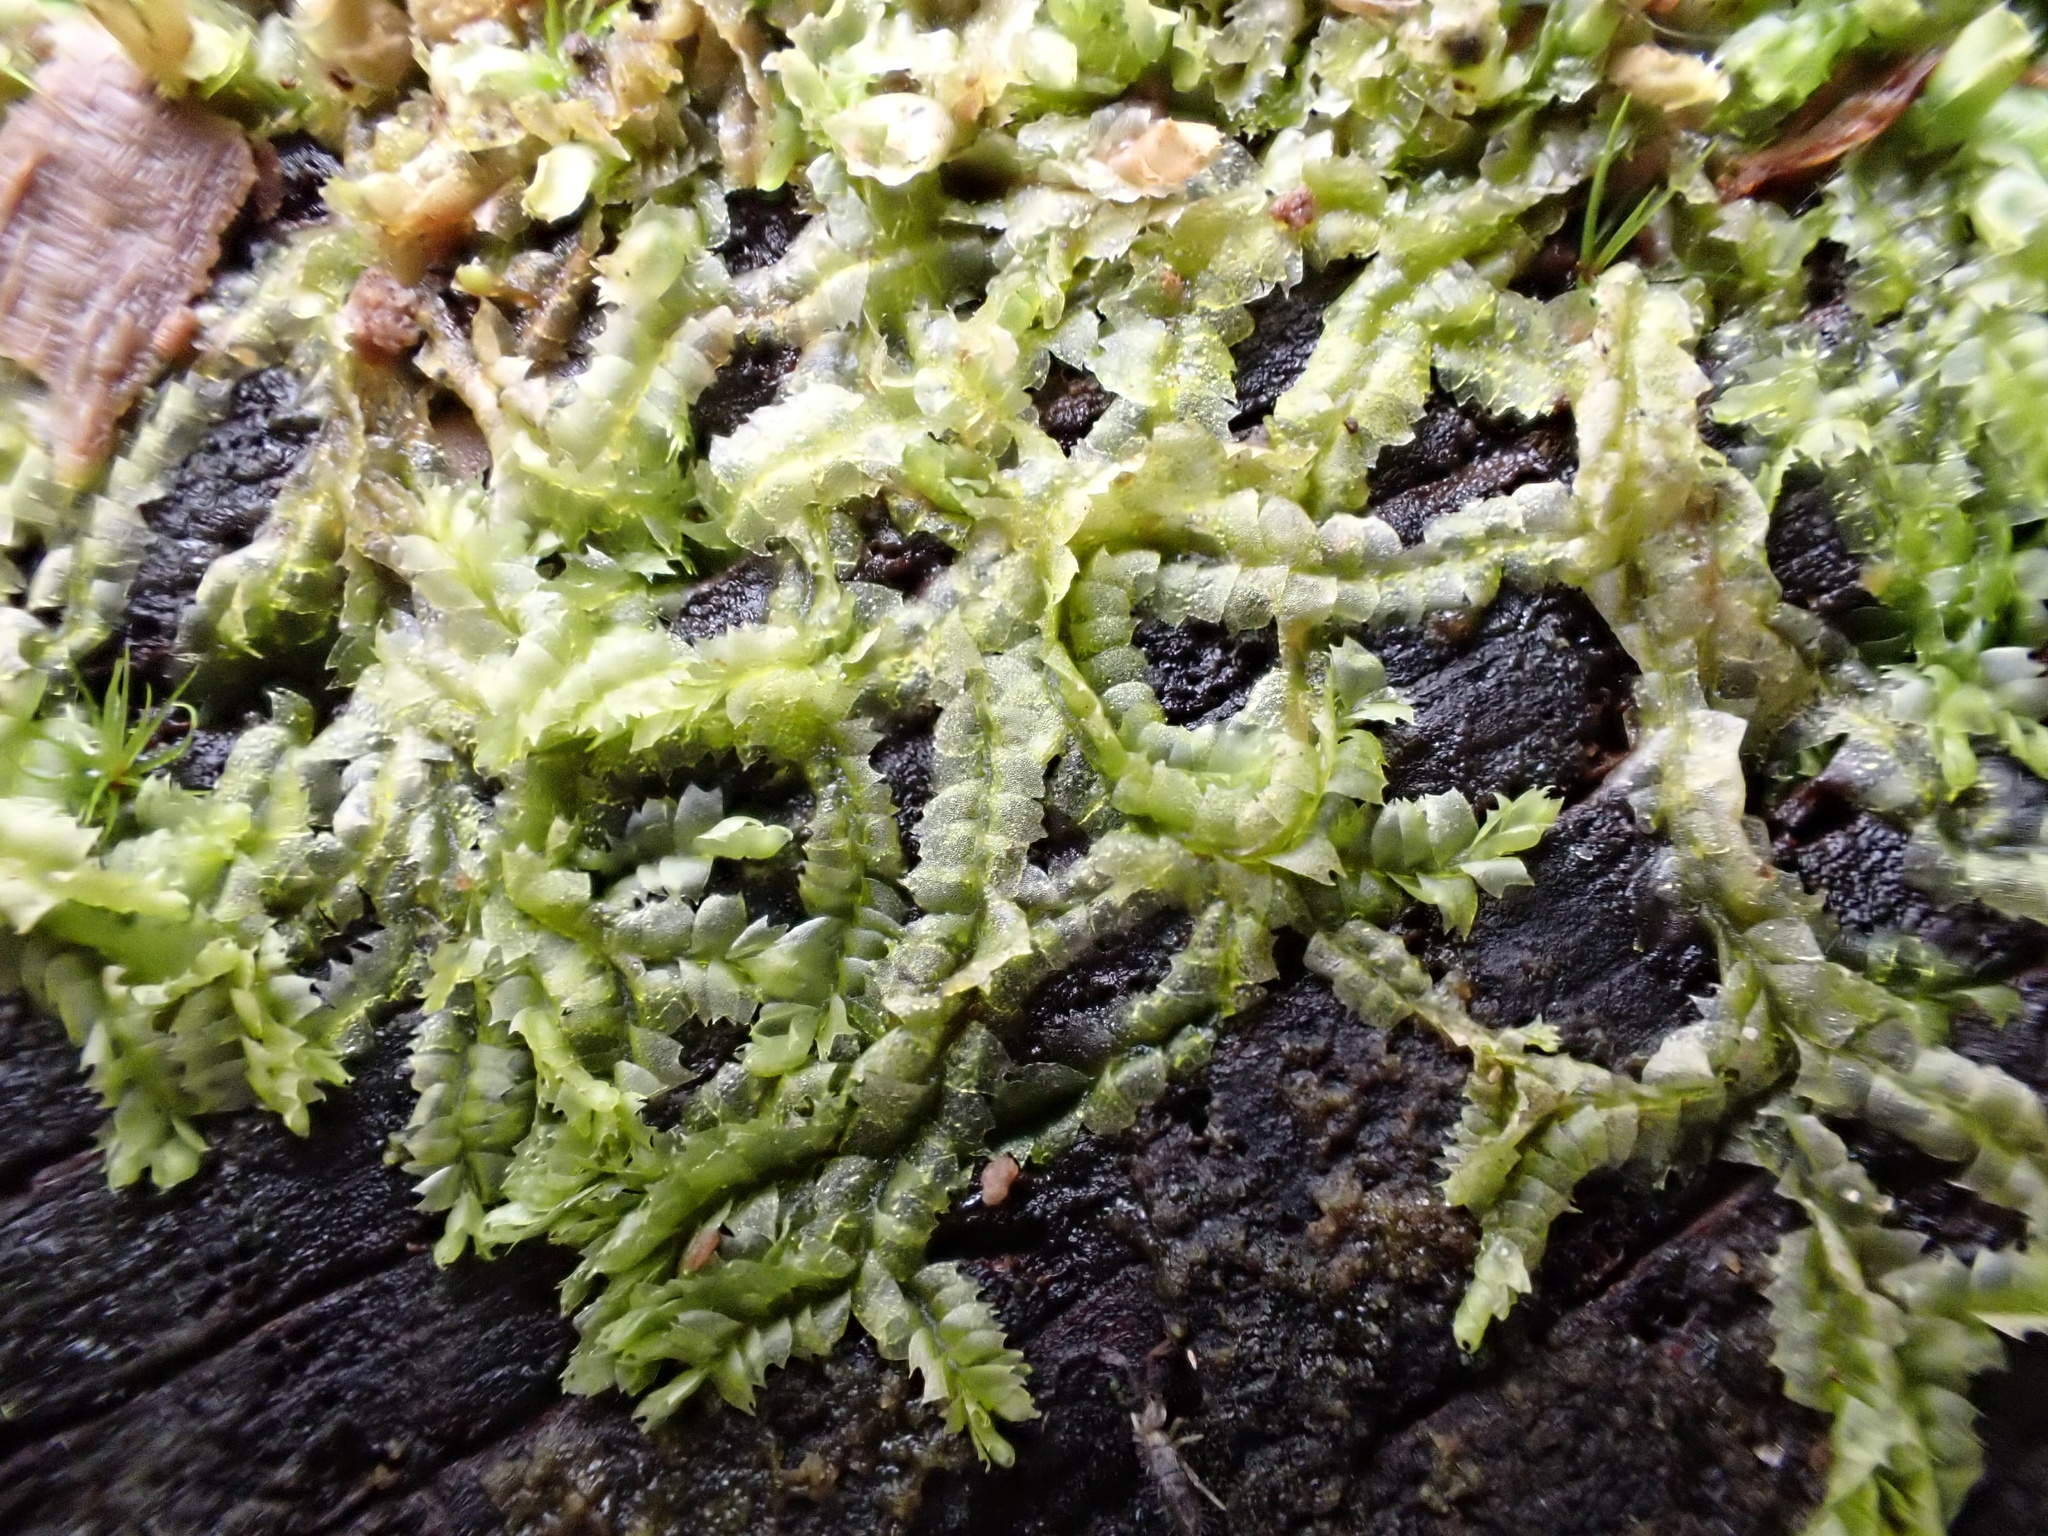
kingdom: Plantae
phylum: Marchantiophyta
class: Jungermanniopsida
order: Jungermanniales
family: Lophocoleaceae
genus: Lophocolea
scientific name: Lophocolea heterophylla
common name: Variable-leaved crestwort
